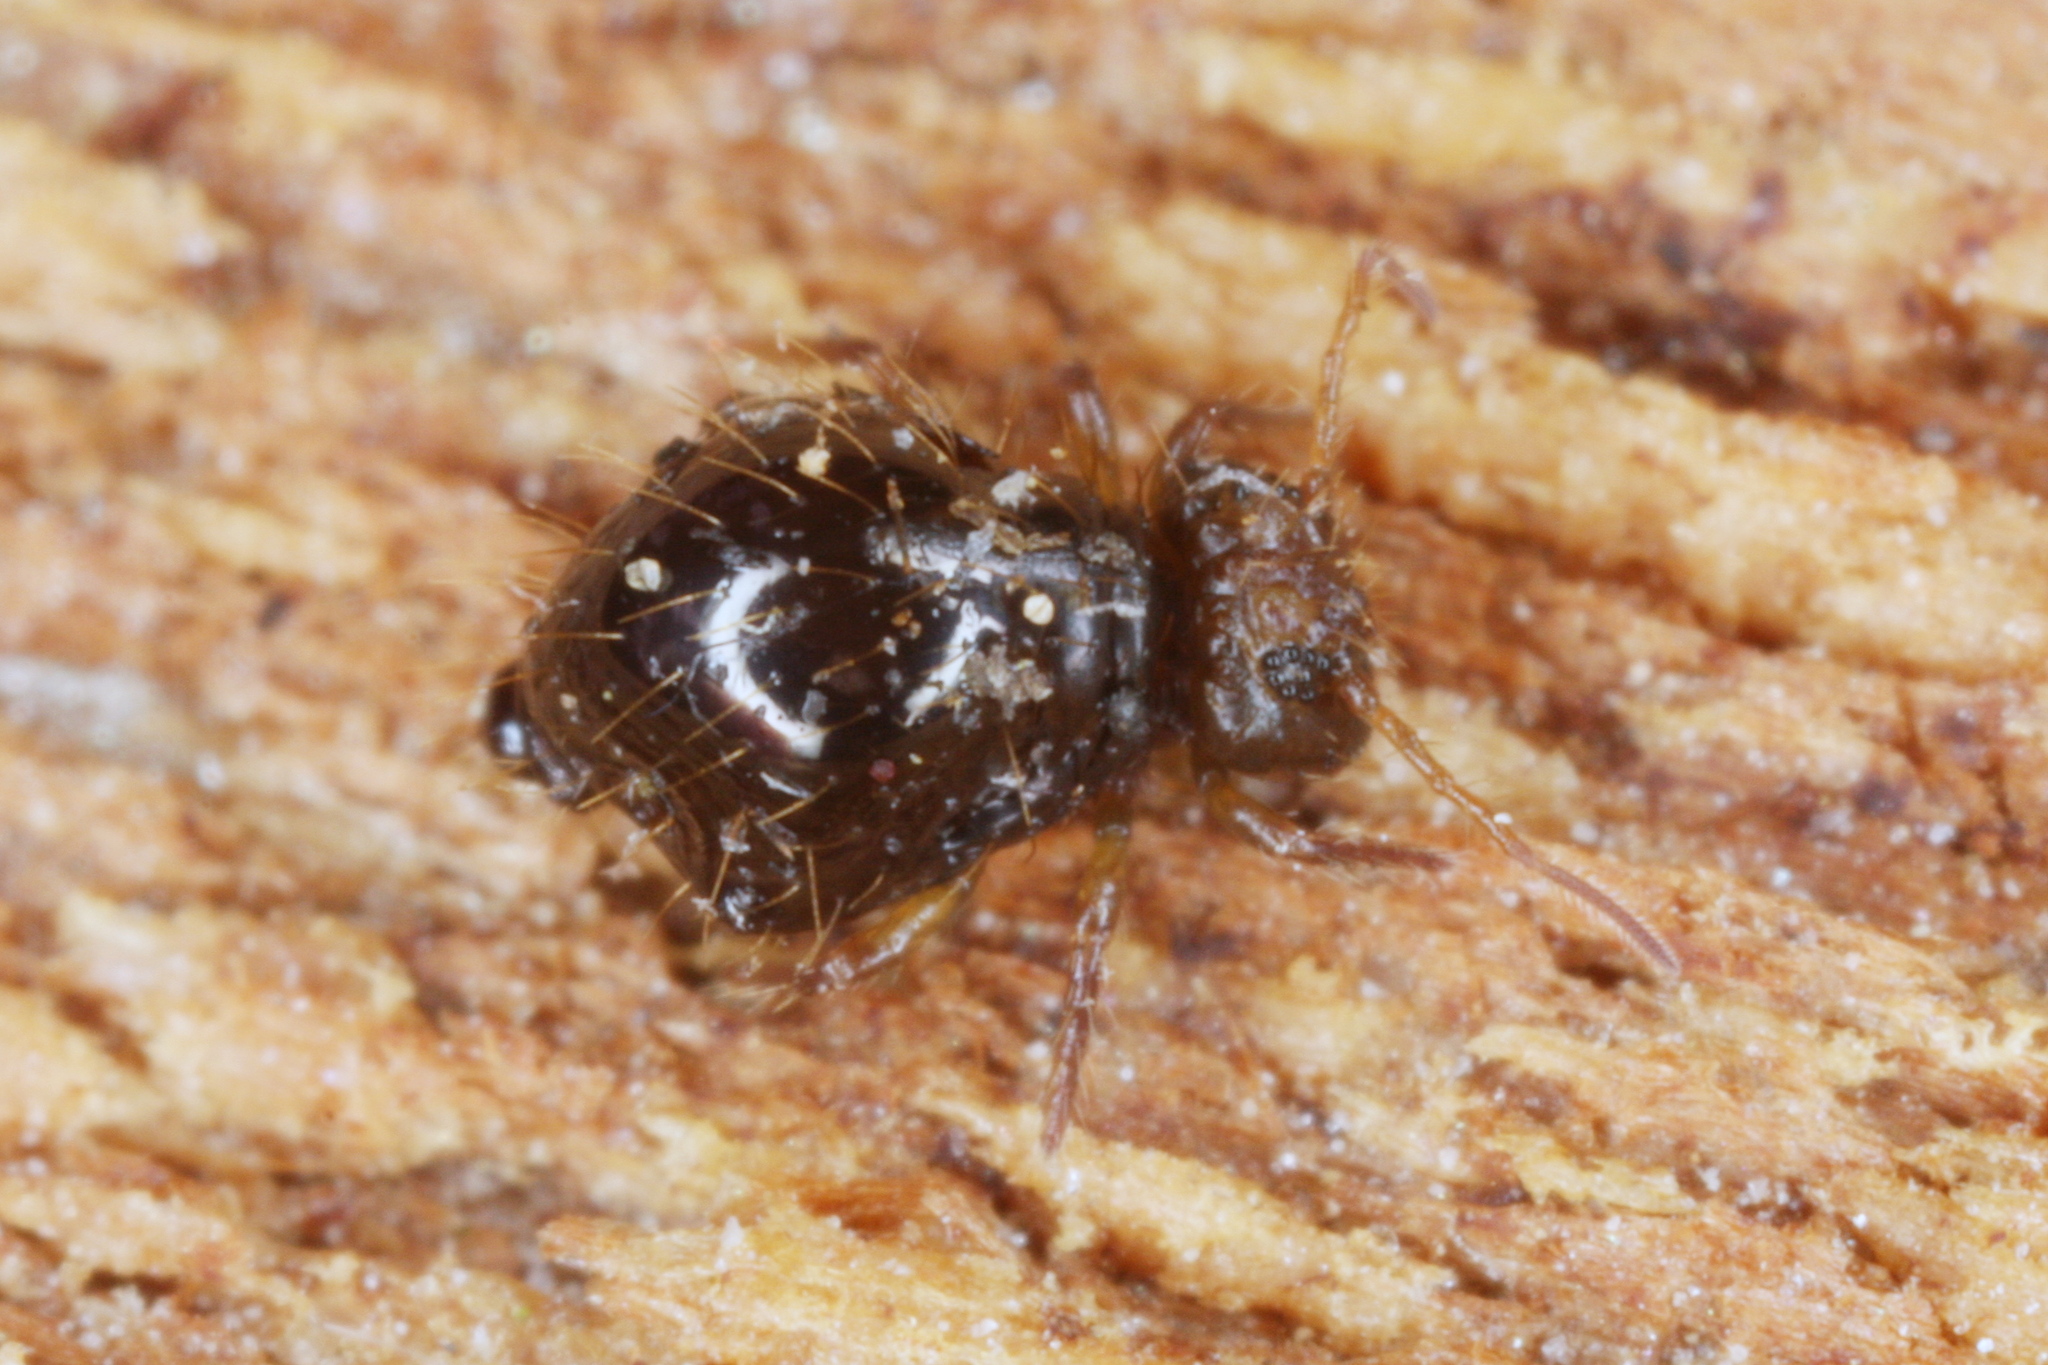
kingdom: Animalia
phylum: Arthropoda
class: Collembola
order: Symphypleona
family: Sminthuridae
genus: Allacma
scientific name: Allacma fusca
